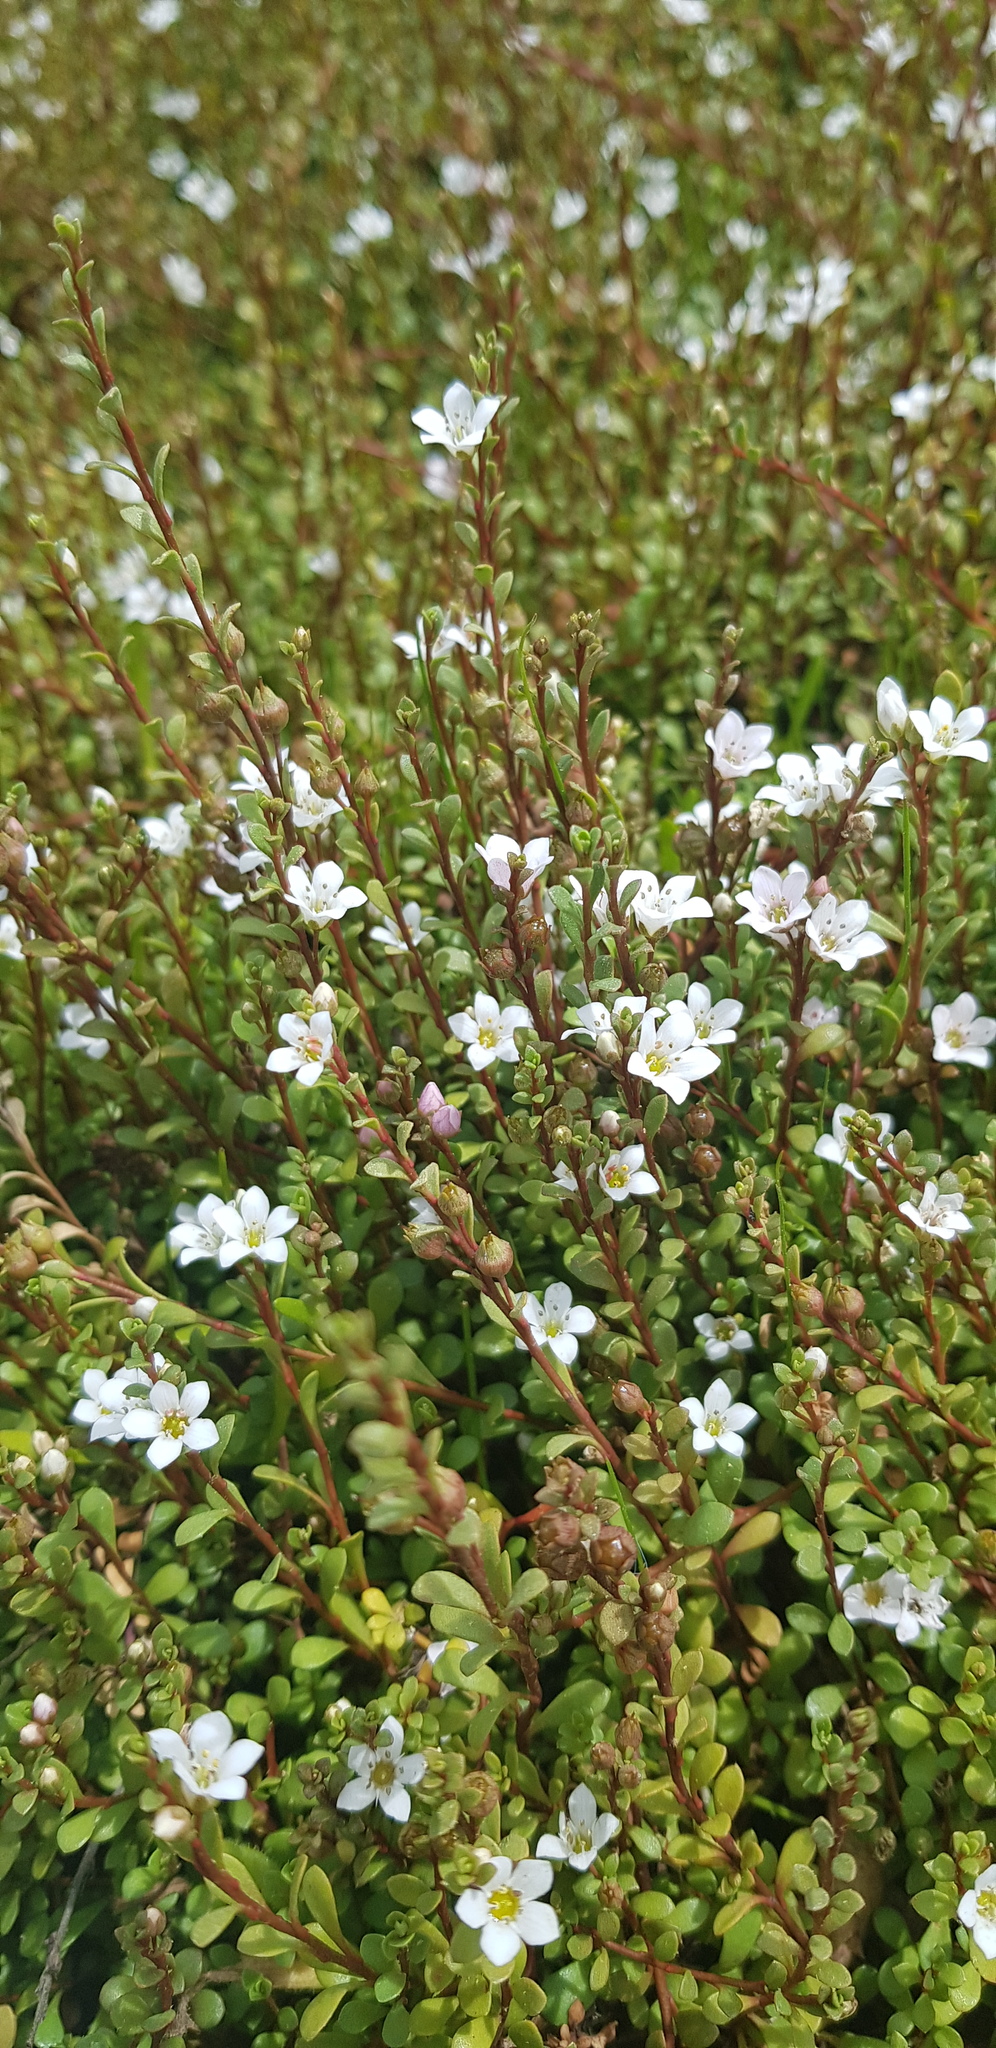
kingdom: Plantae
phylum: Tracheophyta
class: Magnoliopsida
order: Ericales
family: Primulaceae
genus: Samolus
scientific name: Samolus repens
